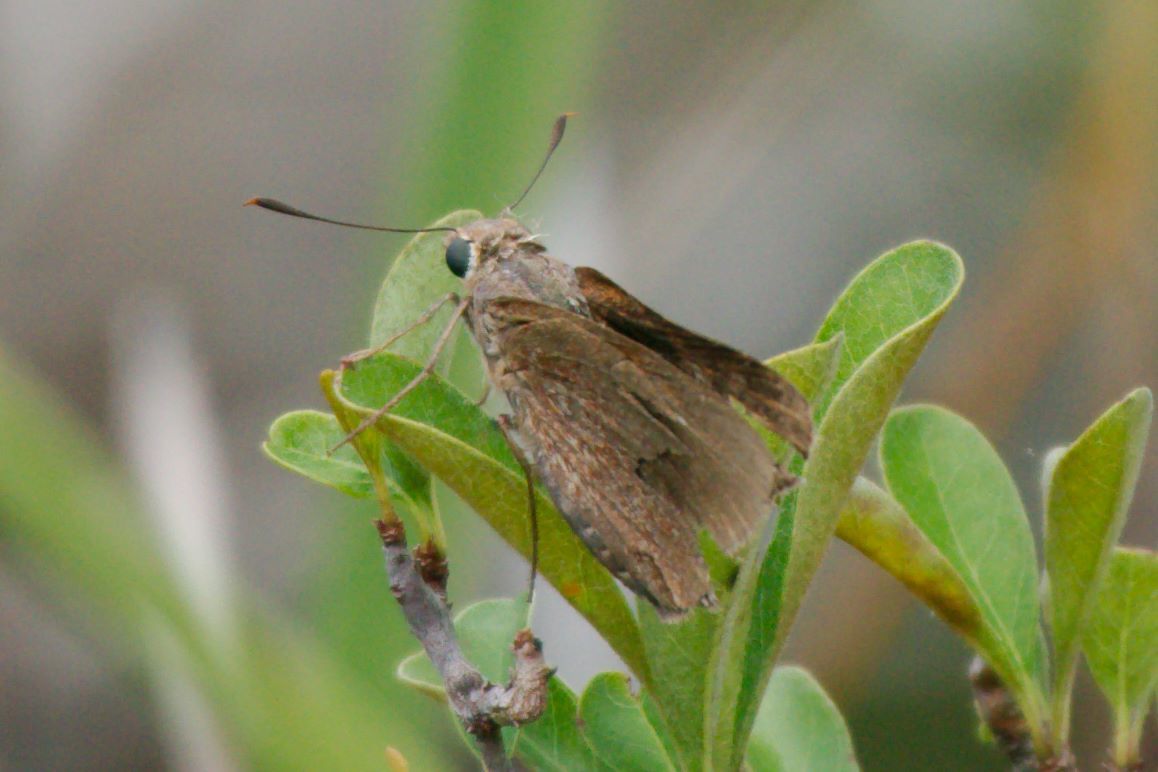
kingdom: Animalia
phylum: Arthropoda
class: Insecta
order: Lepidoptera
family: Hesperiidae
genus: Asbolis
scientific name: Asbolis capucinus
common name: Monk skipper
